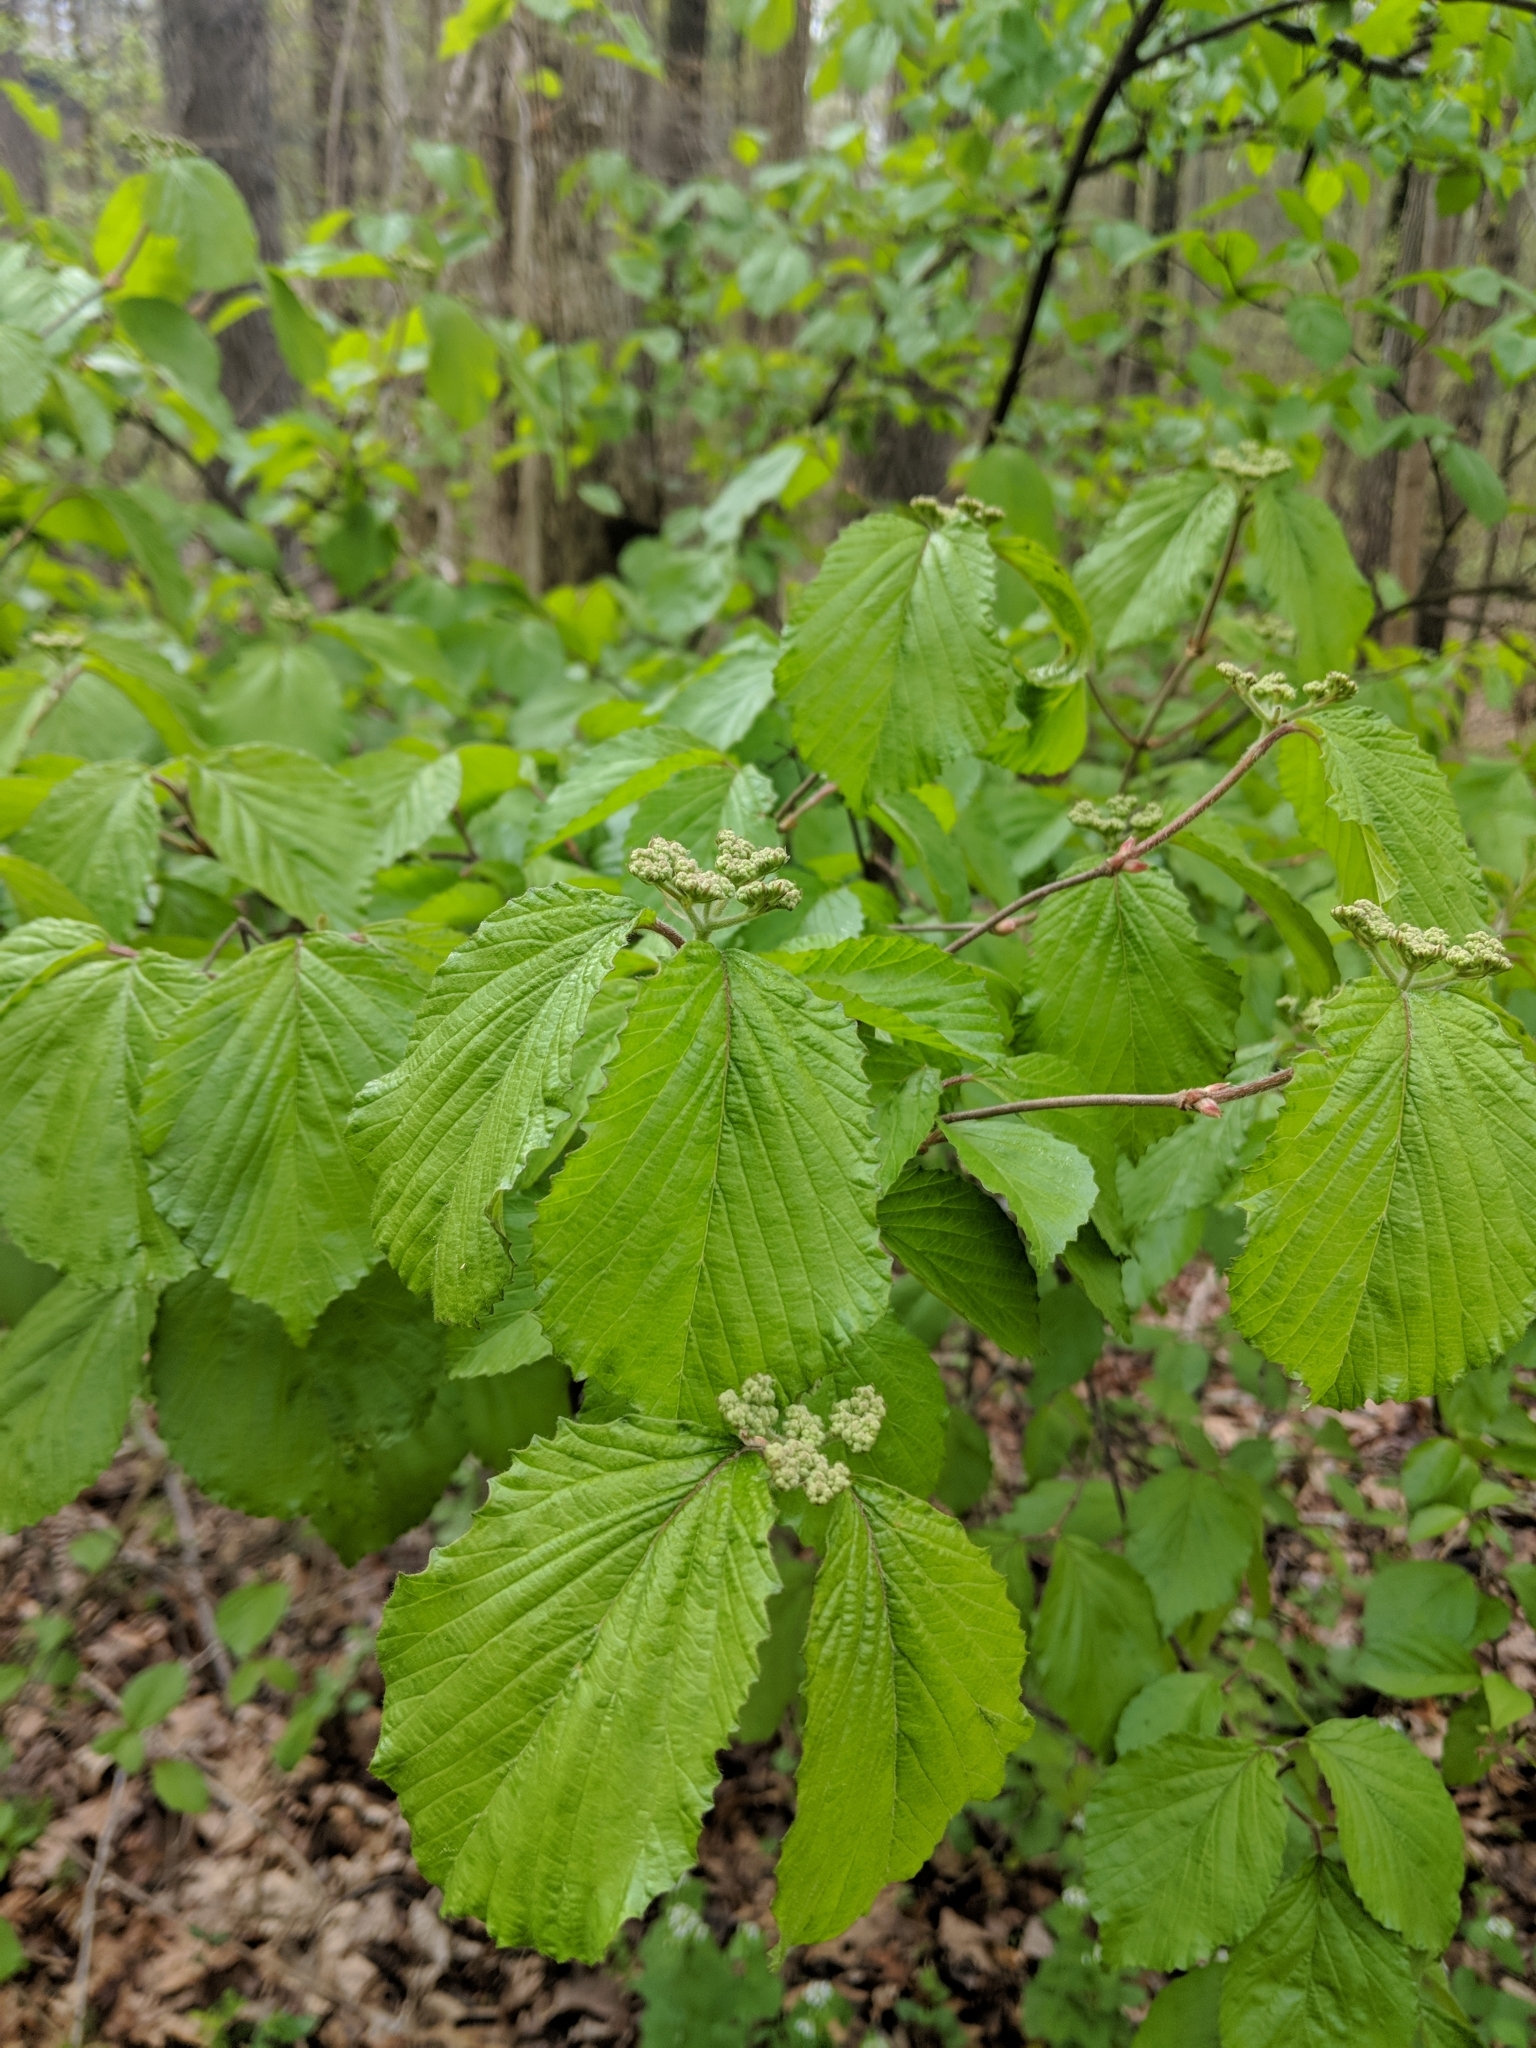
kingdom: Plantae
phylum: Tracheophyta
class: Magnoliopsida
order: Dipsacales
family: Viburnaceae
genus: Viburnum
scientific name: Viburnum dilatatum
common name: Linden arrowwood
